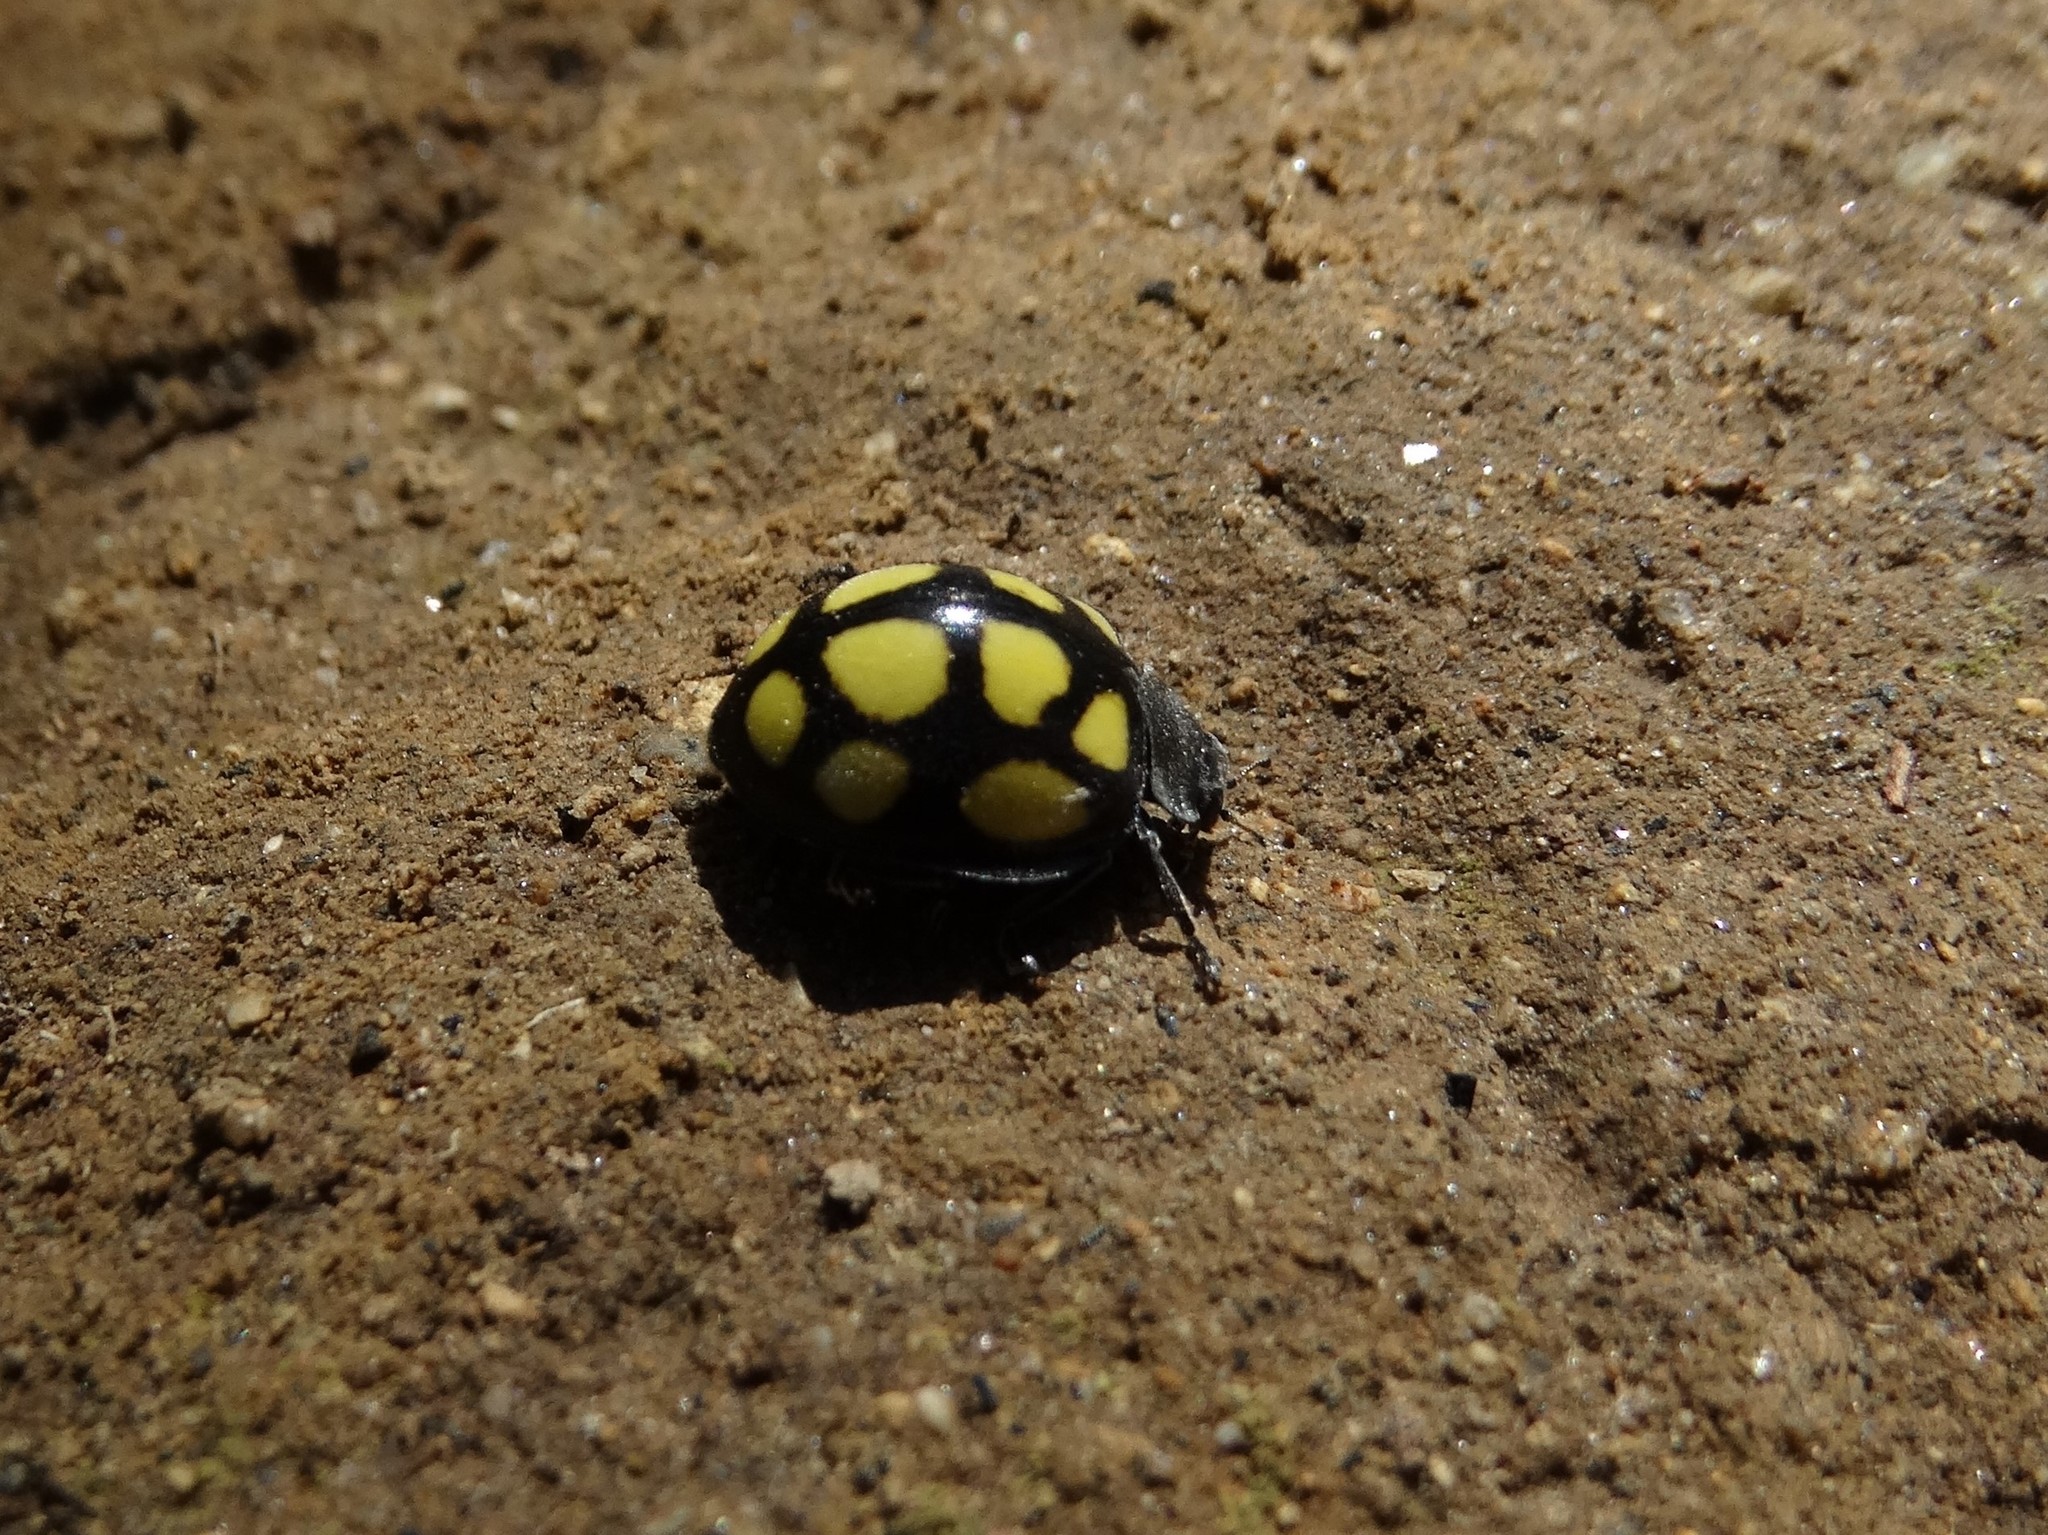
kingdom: Animalia
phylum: Arthropoda
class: Insecta
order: Coleoptera
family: Coccinellidae
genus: Epilachna
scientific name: Epilachna
